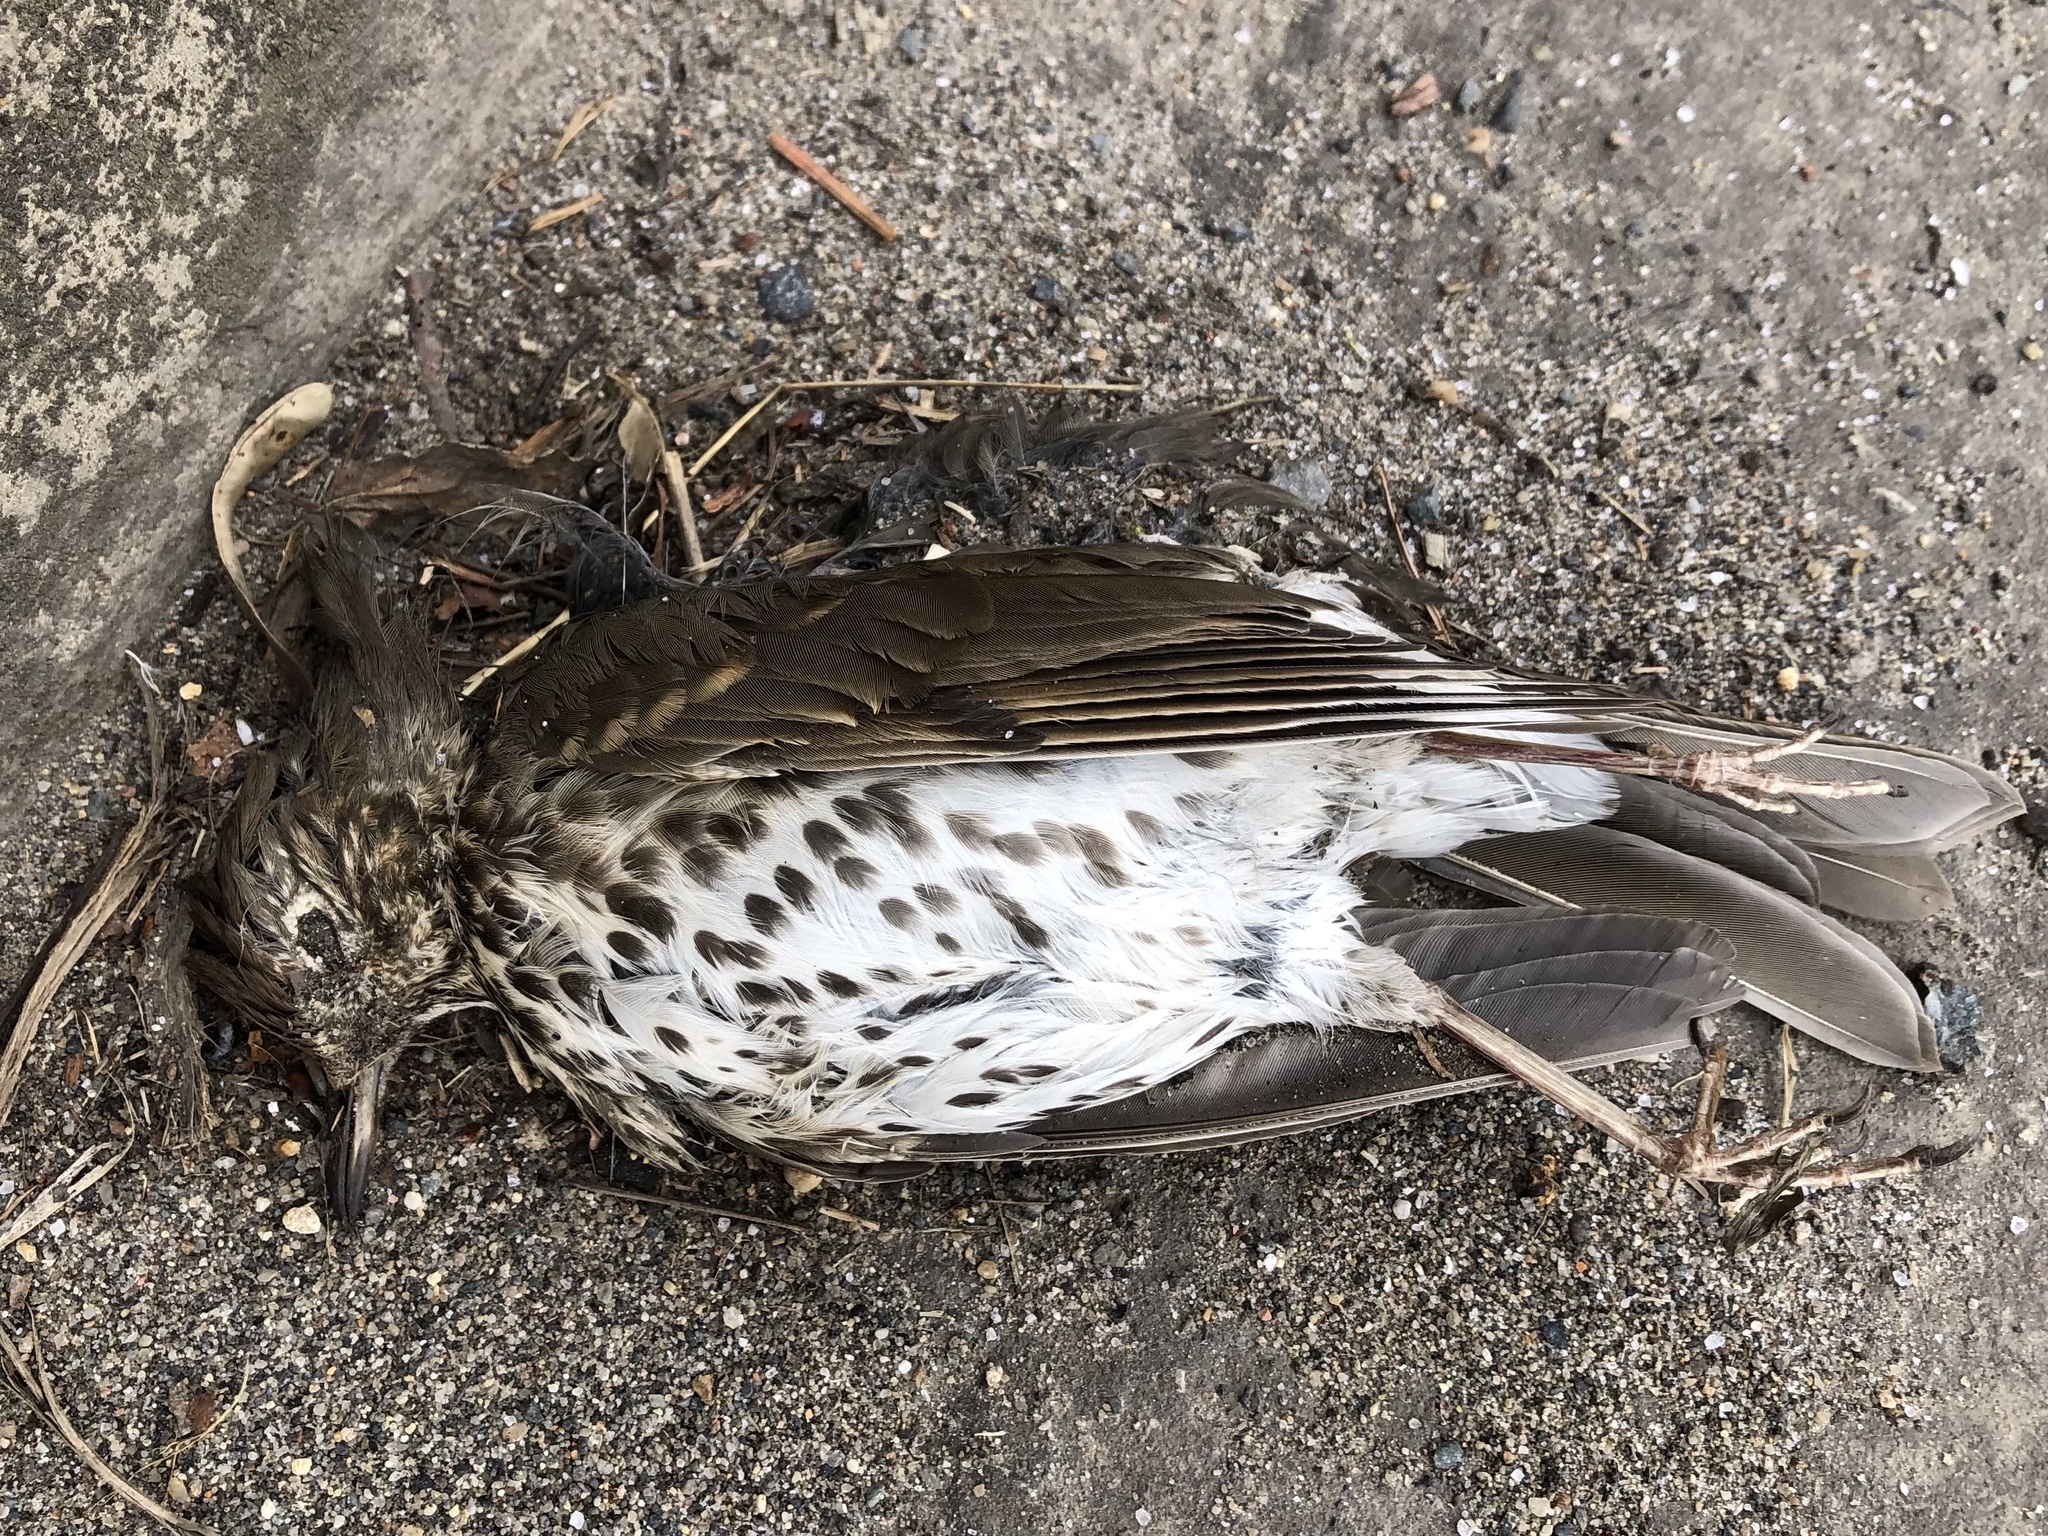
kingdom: Animalia
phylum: Chordata
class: Aves
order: Passeriformes
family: Turdidae
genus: Turdus
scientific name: Turdus philomelos
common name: Song thrush
